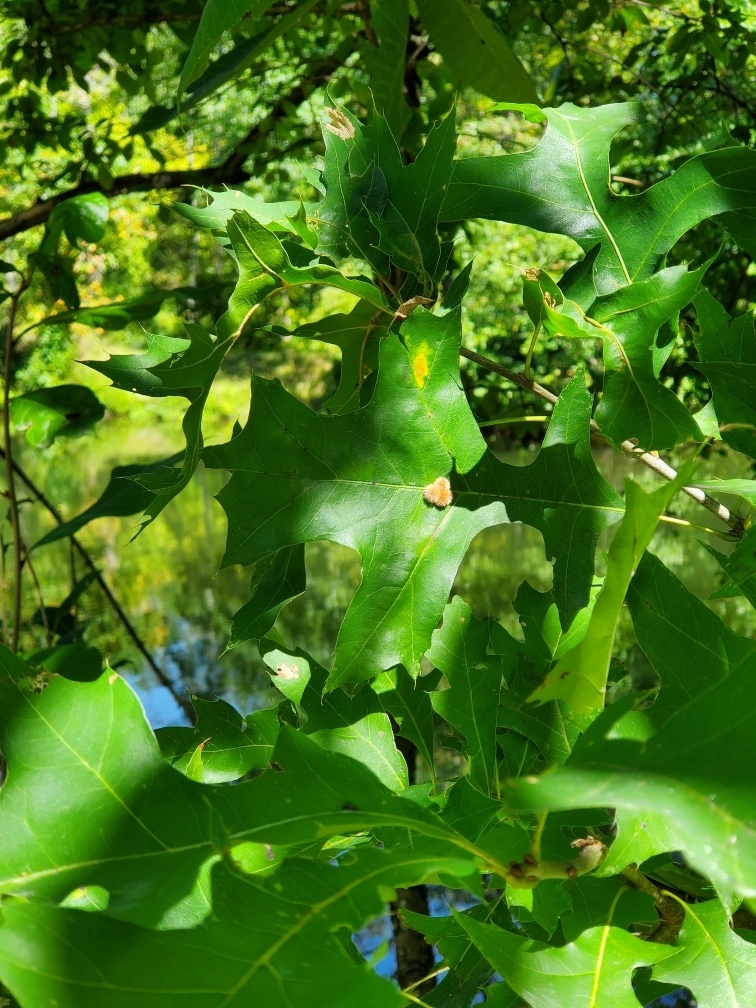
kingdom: Animalia
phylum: Arthropoda
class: Insecta
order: Hymenoptera
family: Cynipidae
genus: Callirhytis
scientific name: Callirhytis
